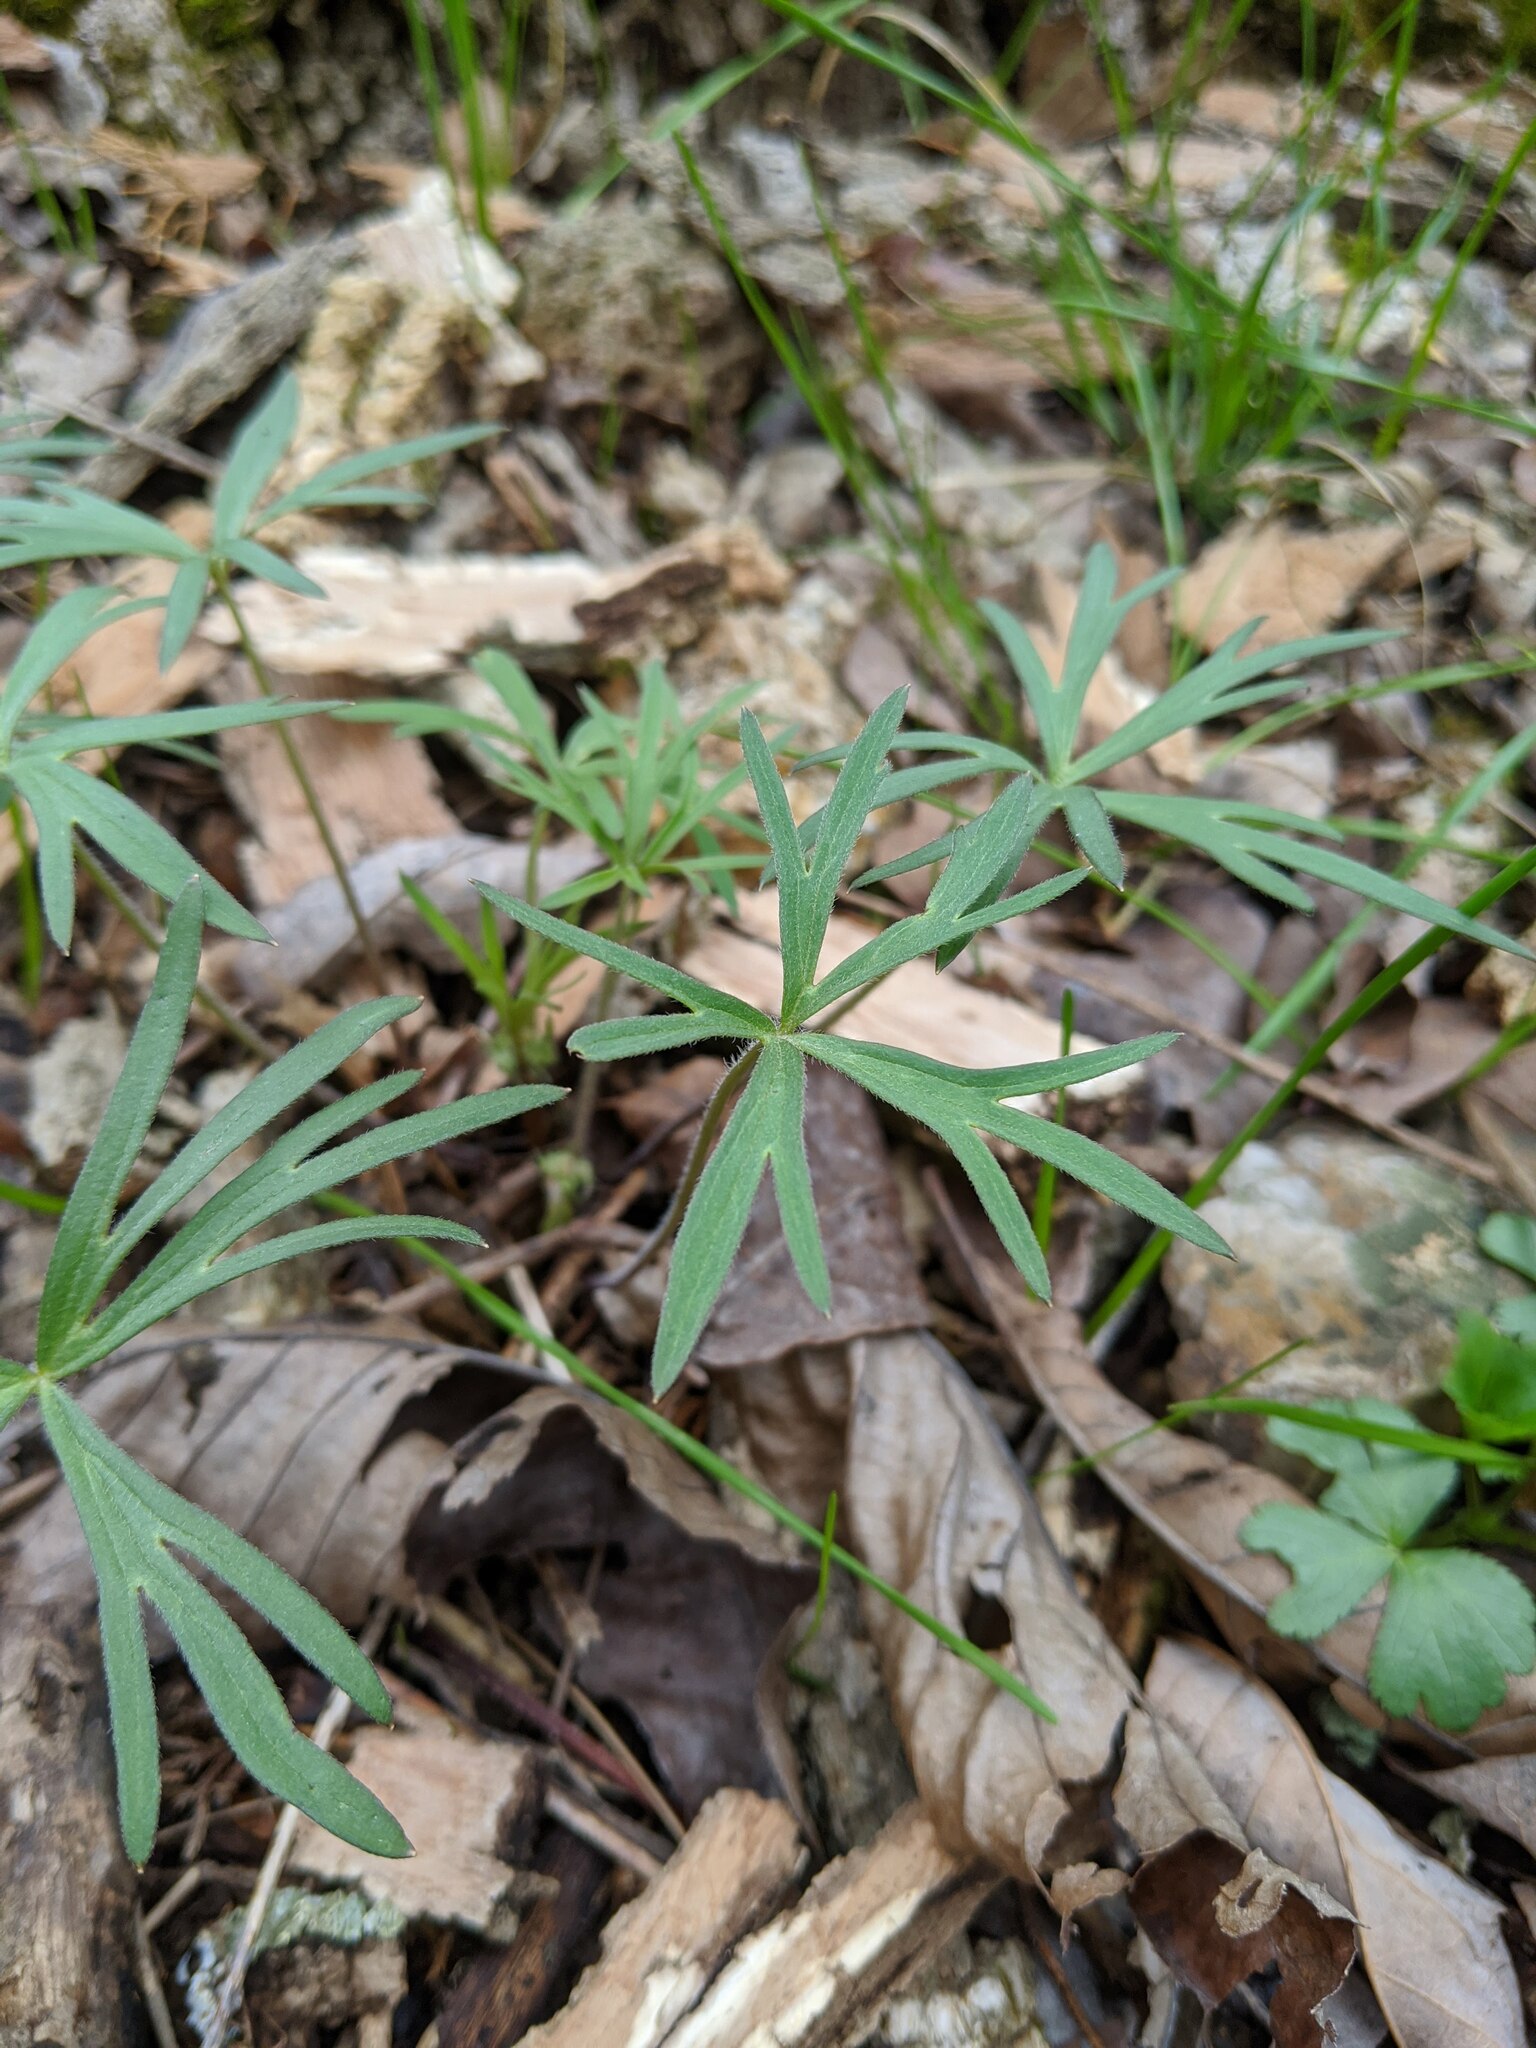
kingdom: Plantae
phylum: Tracheophyta
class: Magnoliopsida
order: Ranunculales
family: Ranunculaceae
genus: Delphinium
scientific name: Delphinium tricorne
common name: Dwarf larkspur
